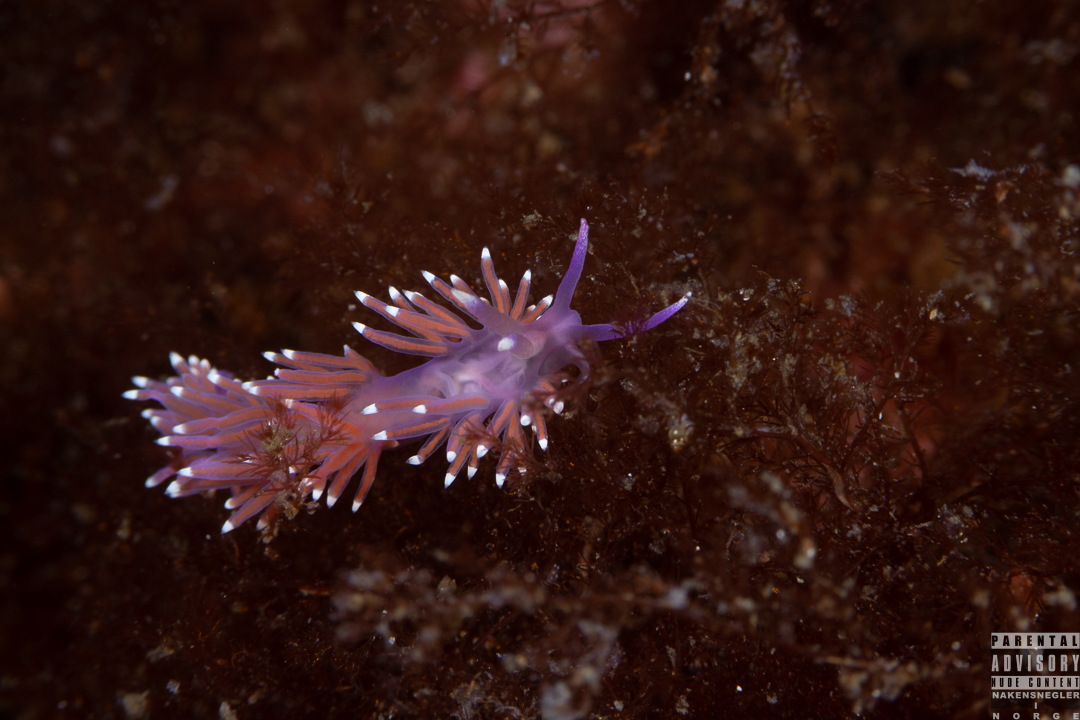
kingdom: Animalia
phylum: Mollusca
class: Gastropoda
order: Nudibranchia
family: Flabellinidae
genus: Edmundsella
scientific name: Edmundsella pedata
